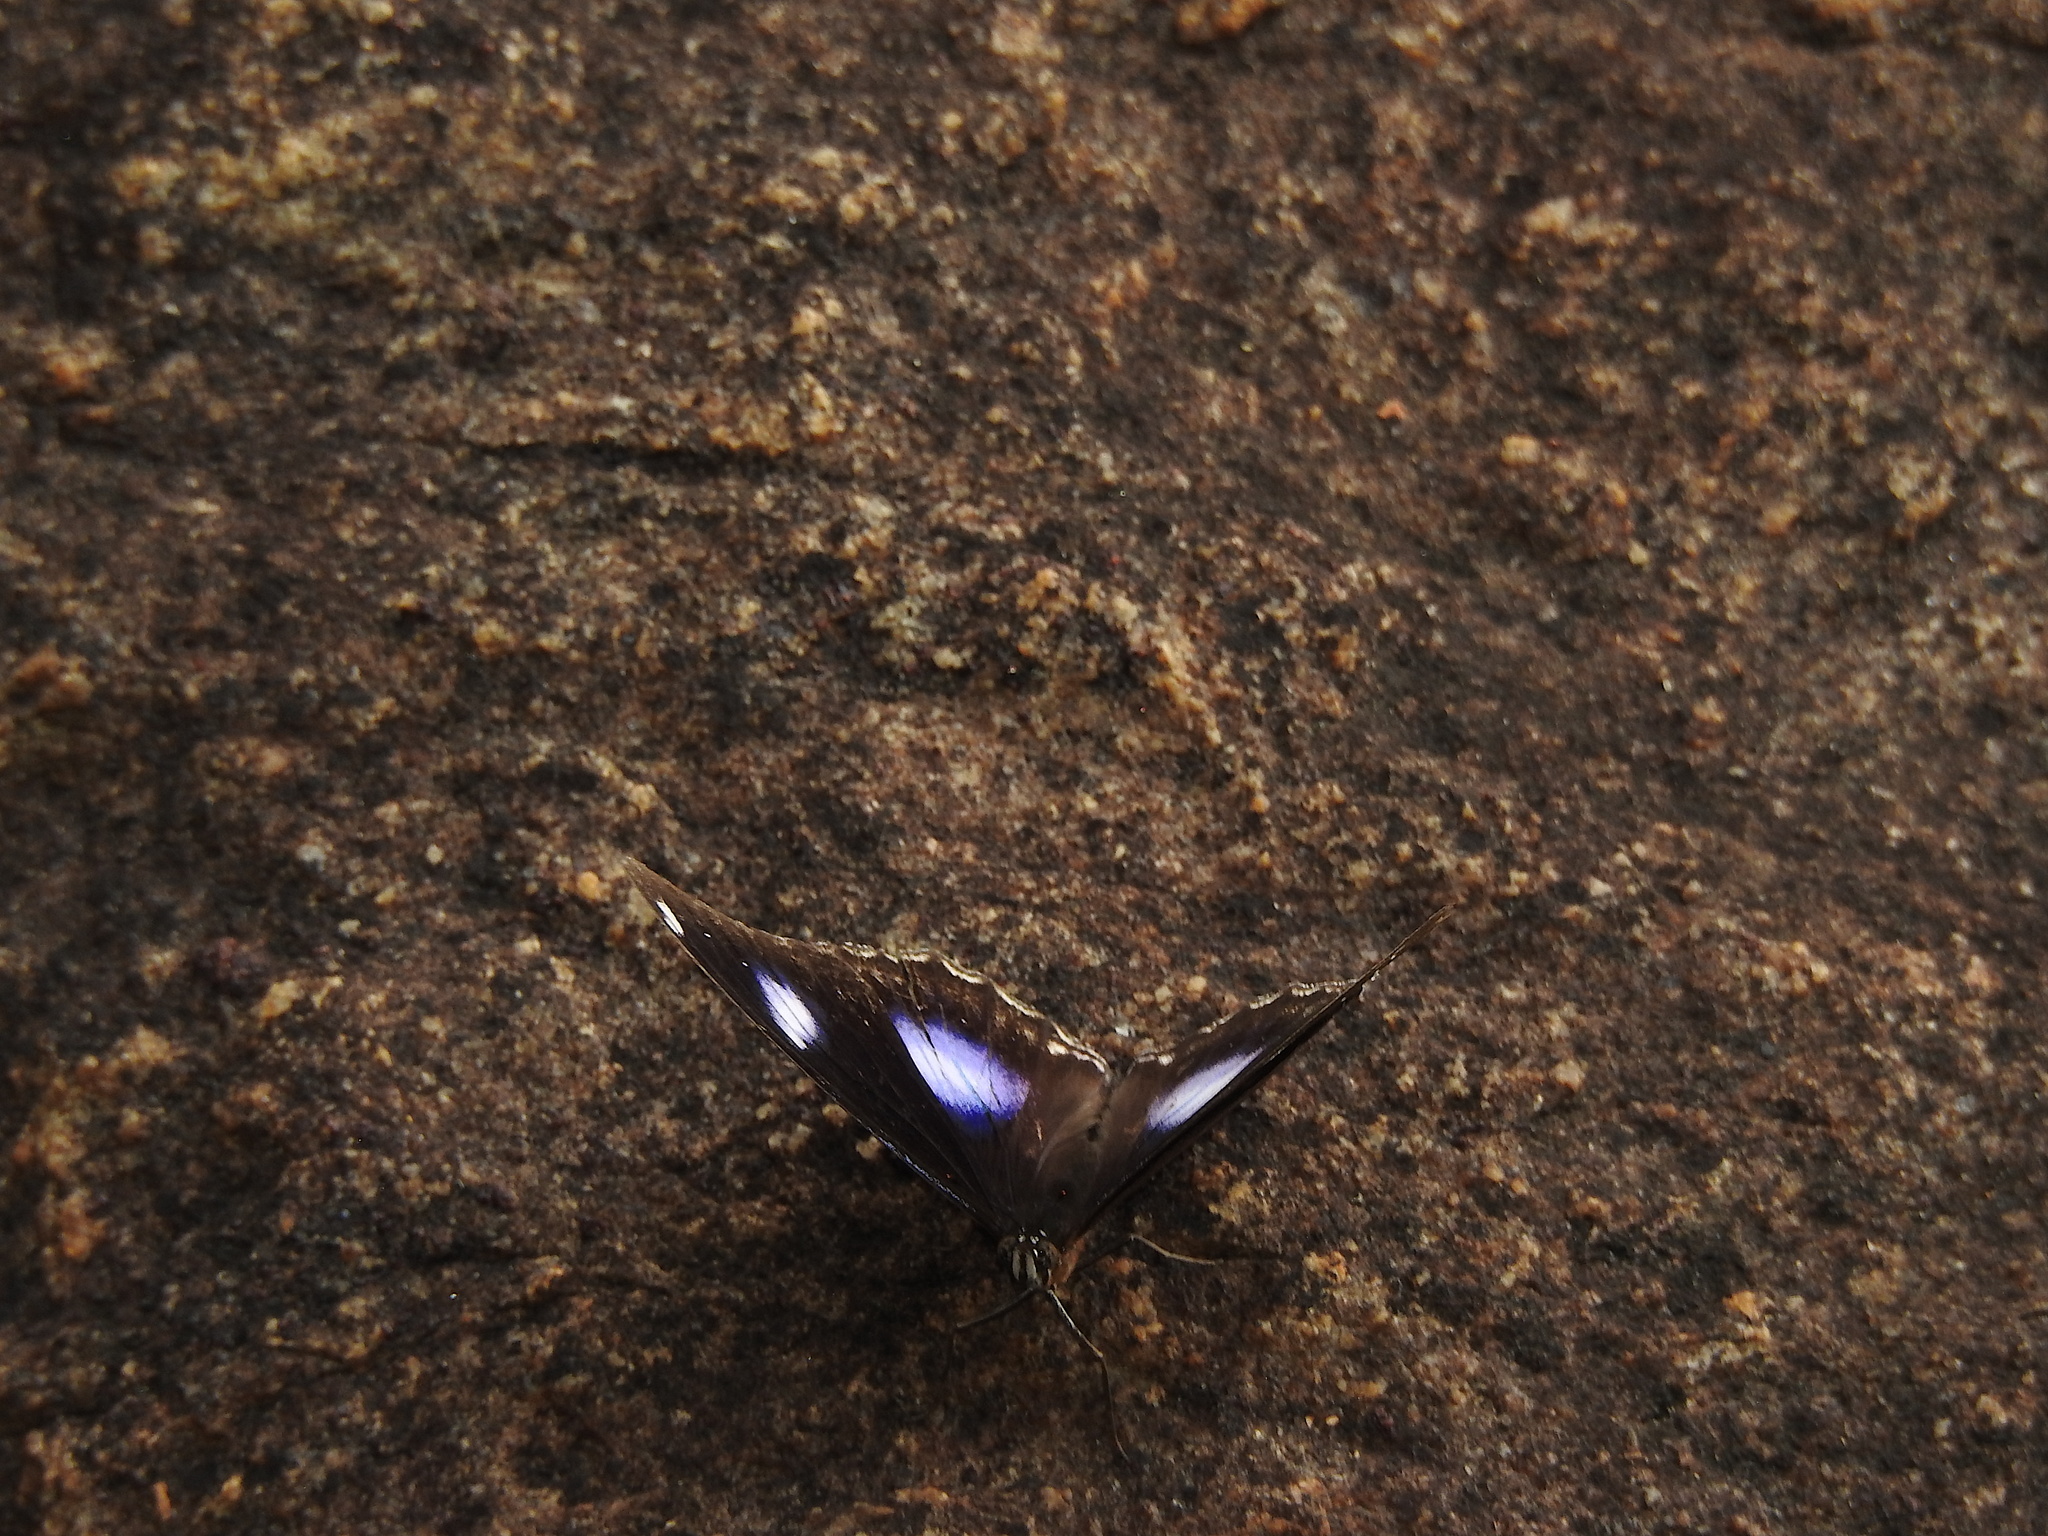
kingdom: Animalia
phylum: Arthropoda
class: Insecta
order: Lepidoptera
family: Nymphalidae
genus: Hypolimnas
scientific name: Hypolimnas bolina
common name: Great eggfly
